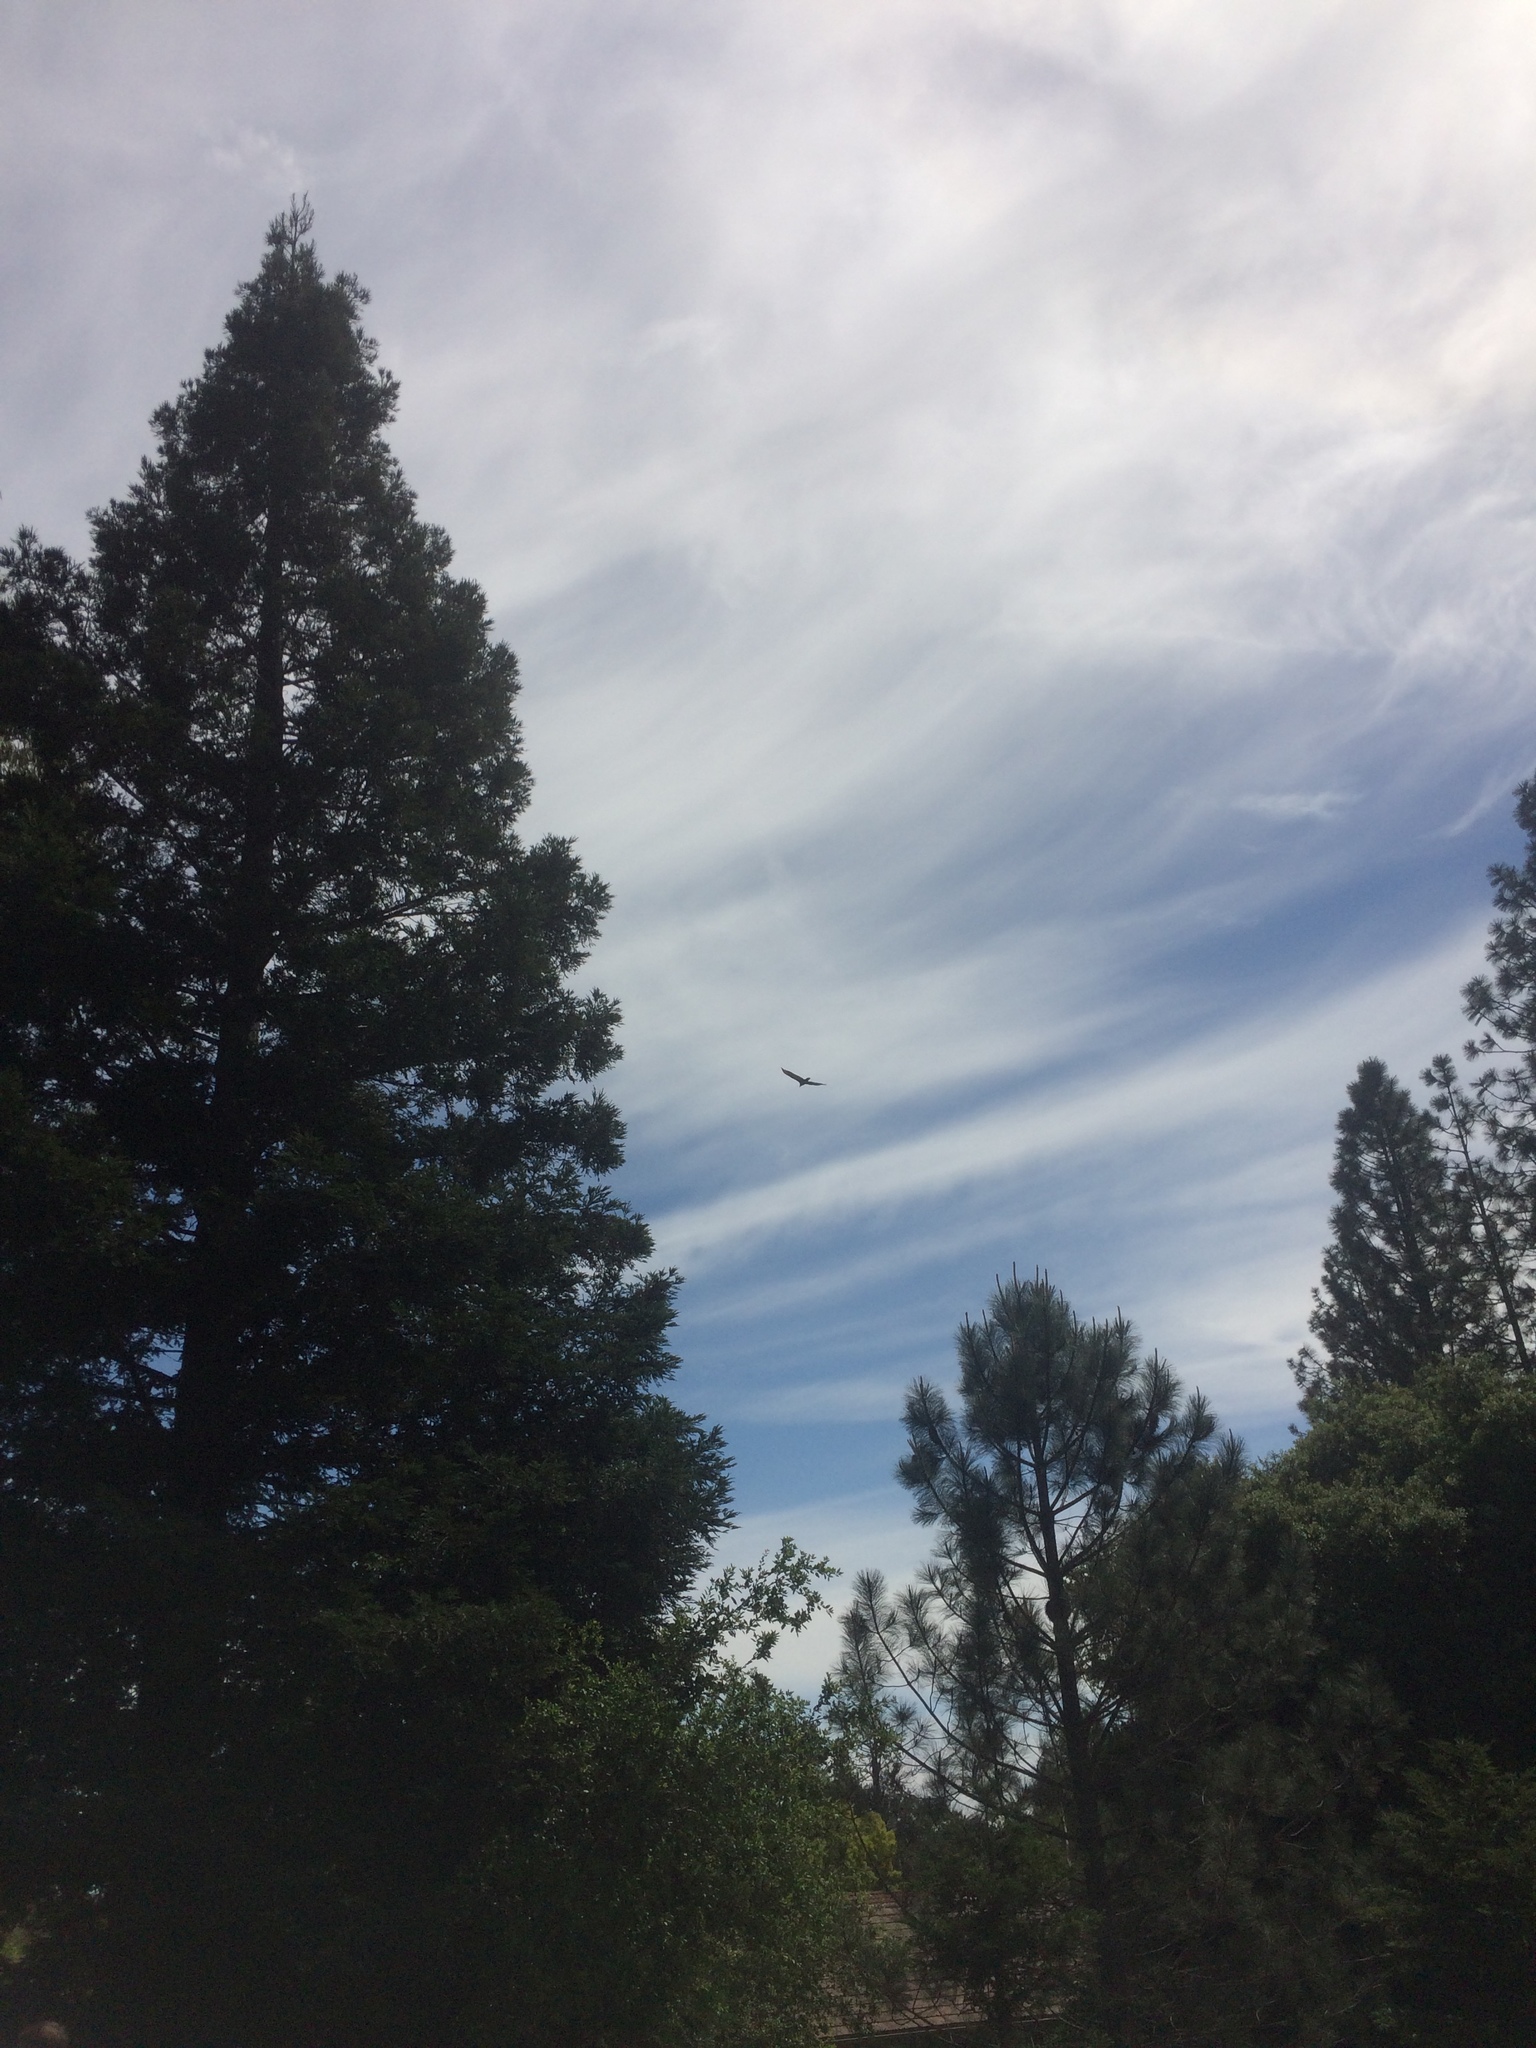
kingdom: Animalia
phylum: Chordata
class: Aves
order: Accipitriformes
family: Cathartidae
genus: Cathartes
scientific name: Cathartes aura
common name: Turkey vulture
